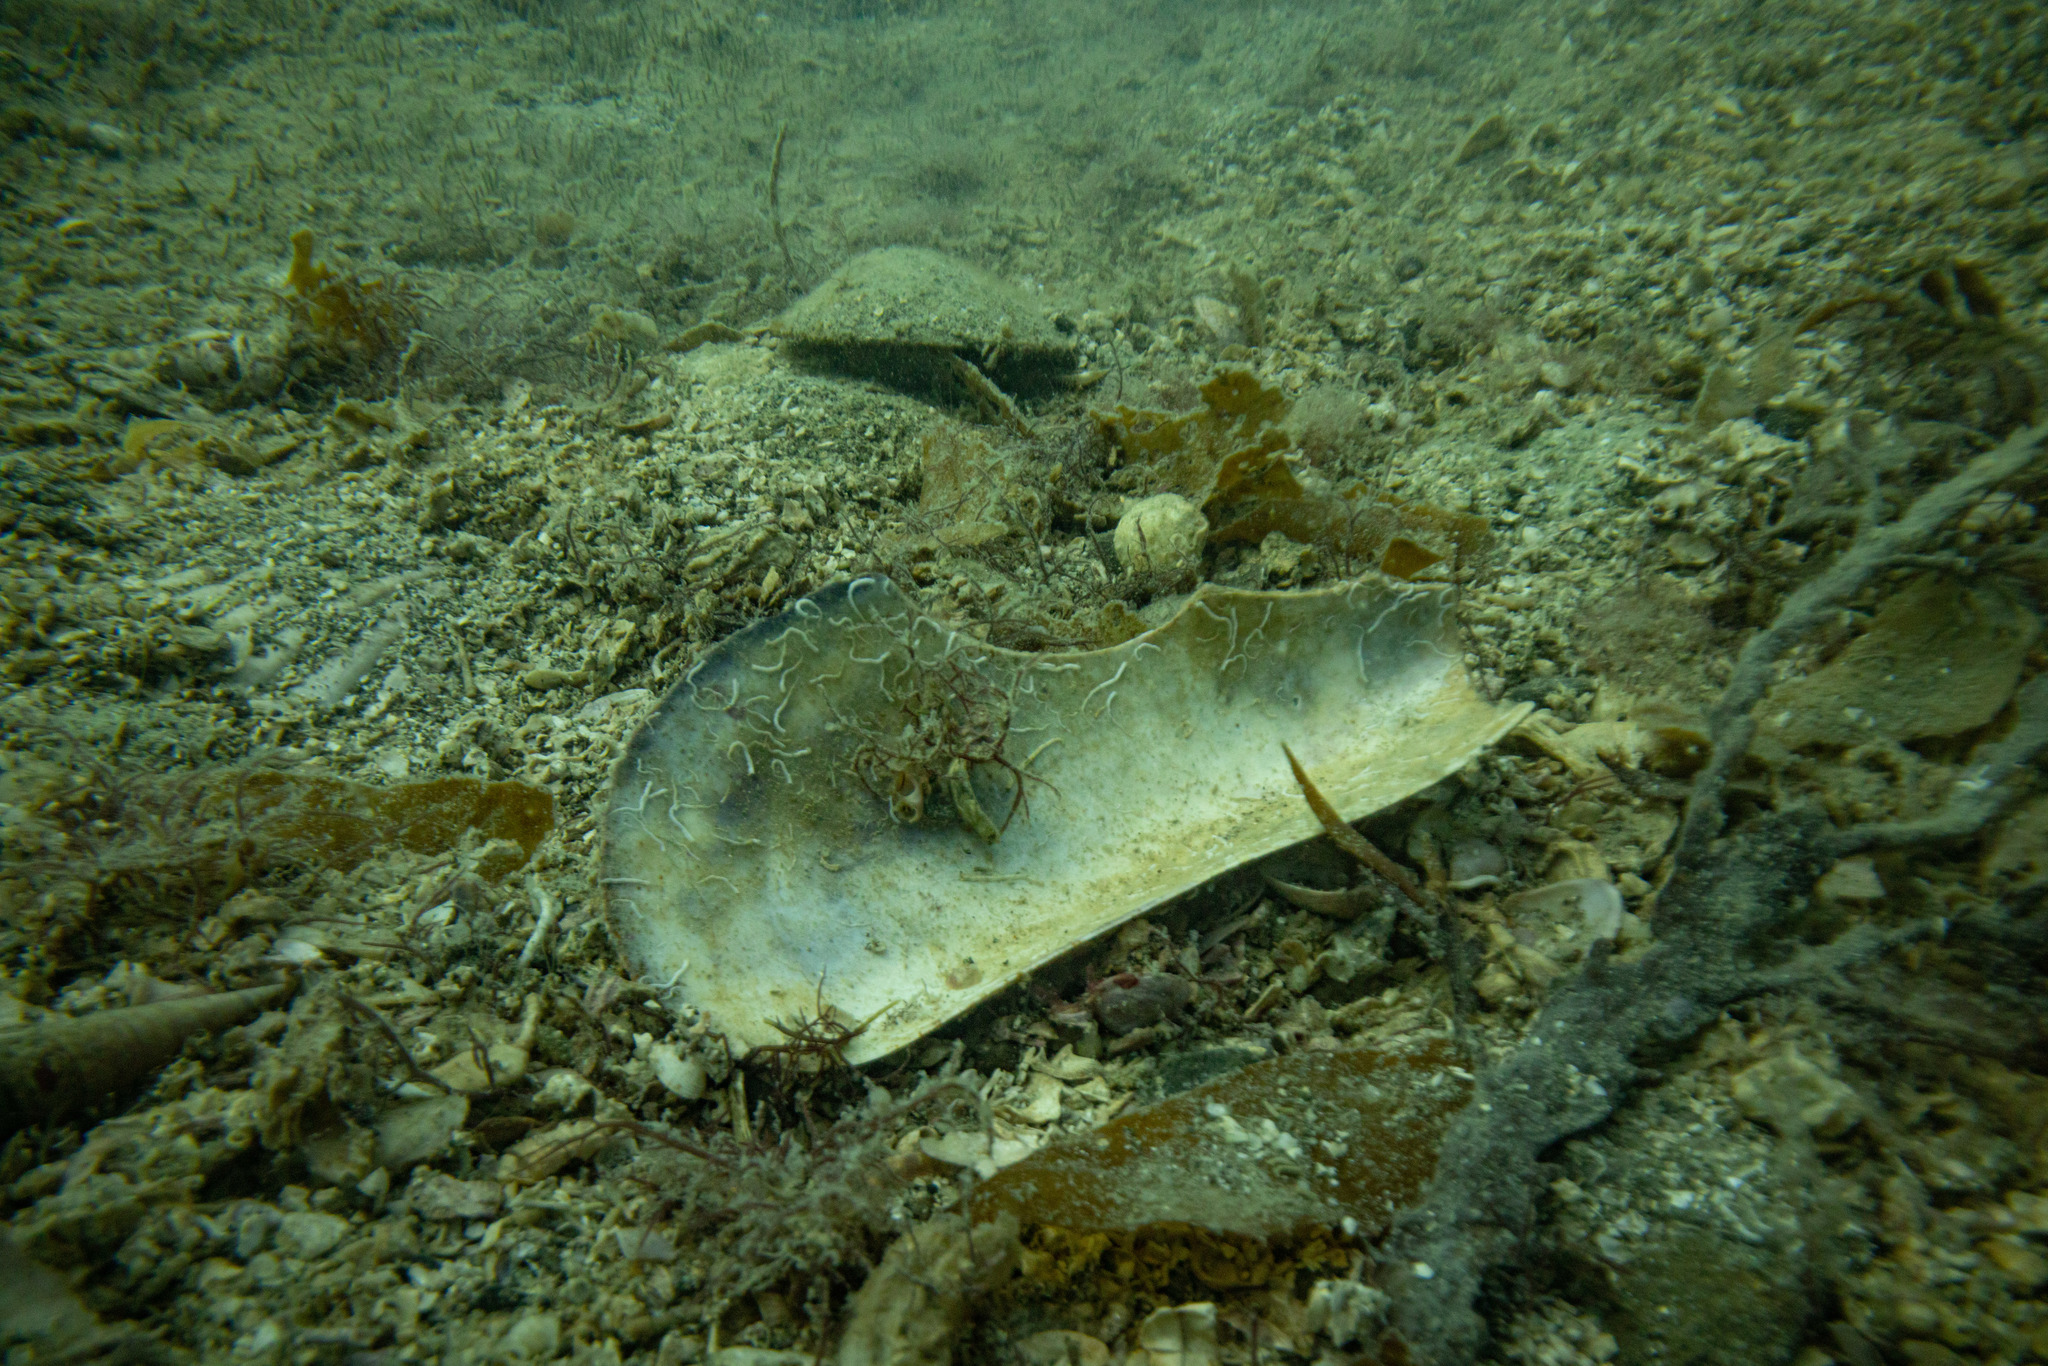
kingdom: Animalia
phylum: Mollusca
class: Bivalvia
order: Mytilida
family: Mytilidae
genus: Perna
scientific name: Perna canaliculus
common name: New zealand greenshelltm
